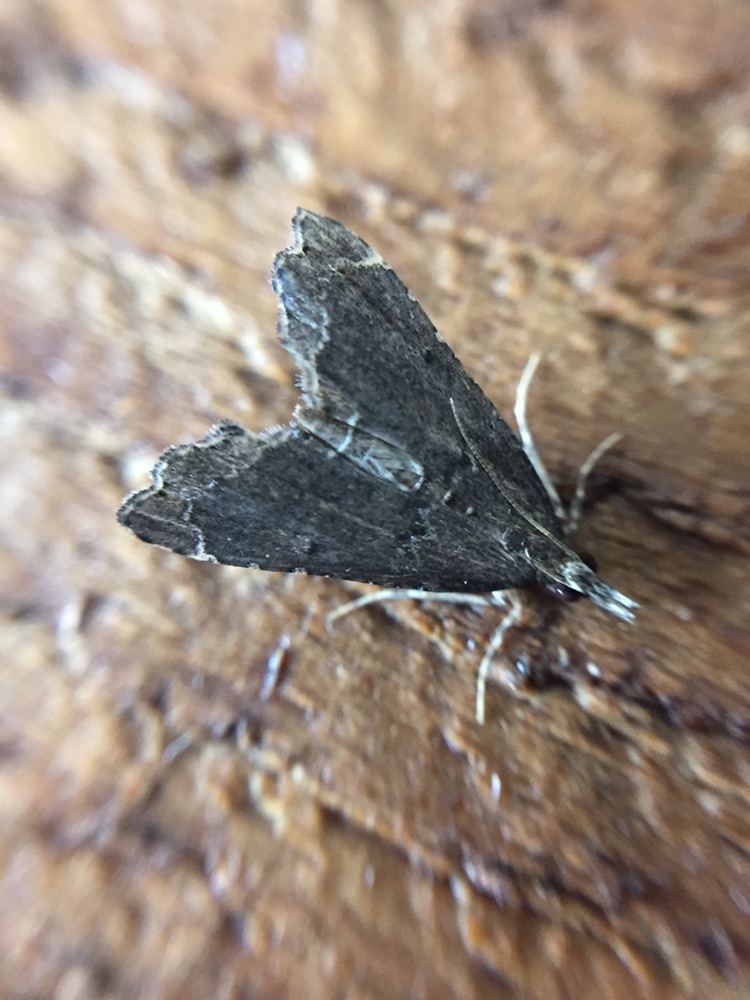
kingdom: Animalia
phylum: Arthropoda
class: Insecta
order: Lepidoptera
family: Crambidae
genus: Diplopseustis
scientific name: Diplopseustis perieresalis
